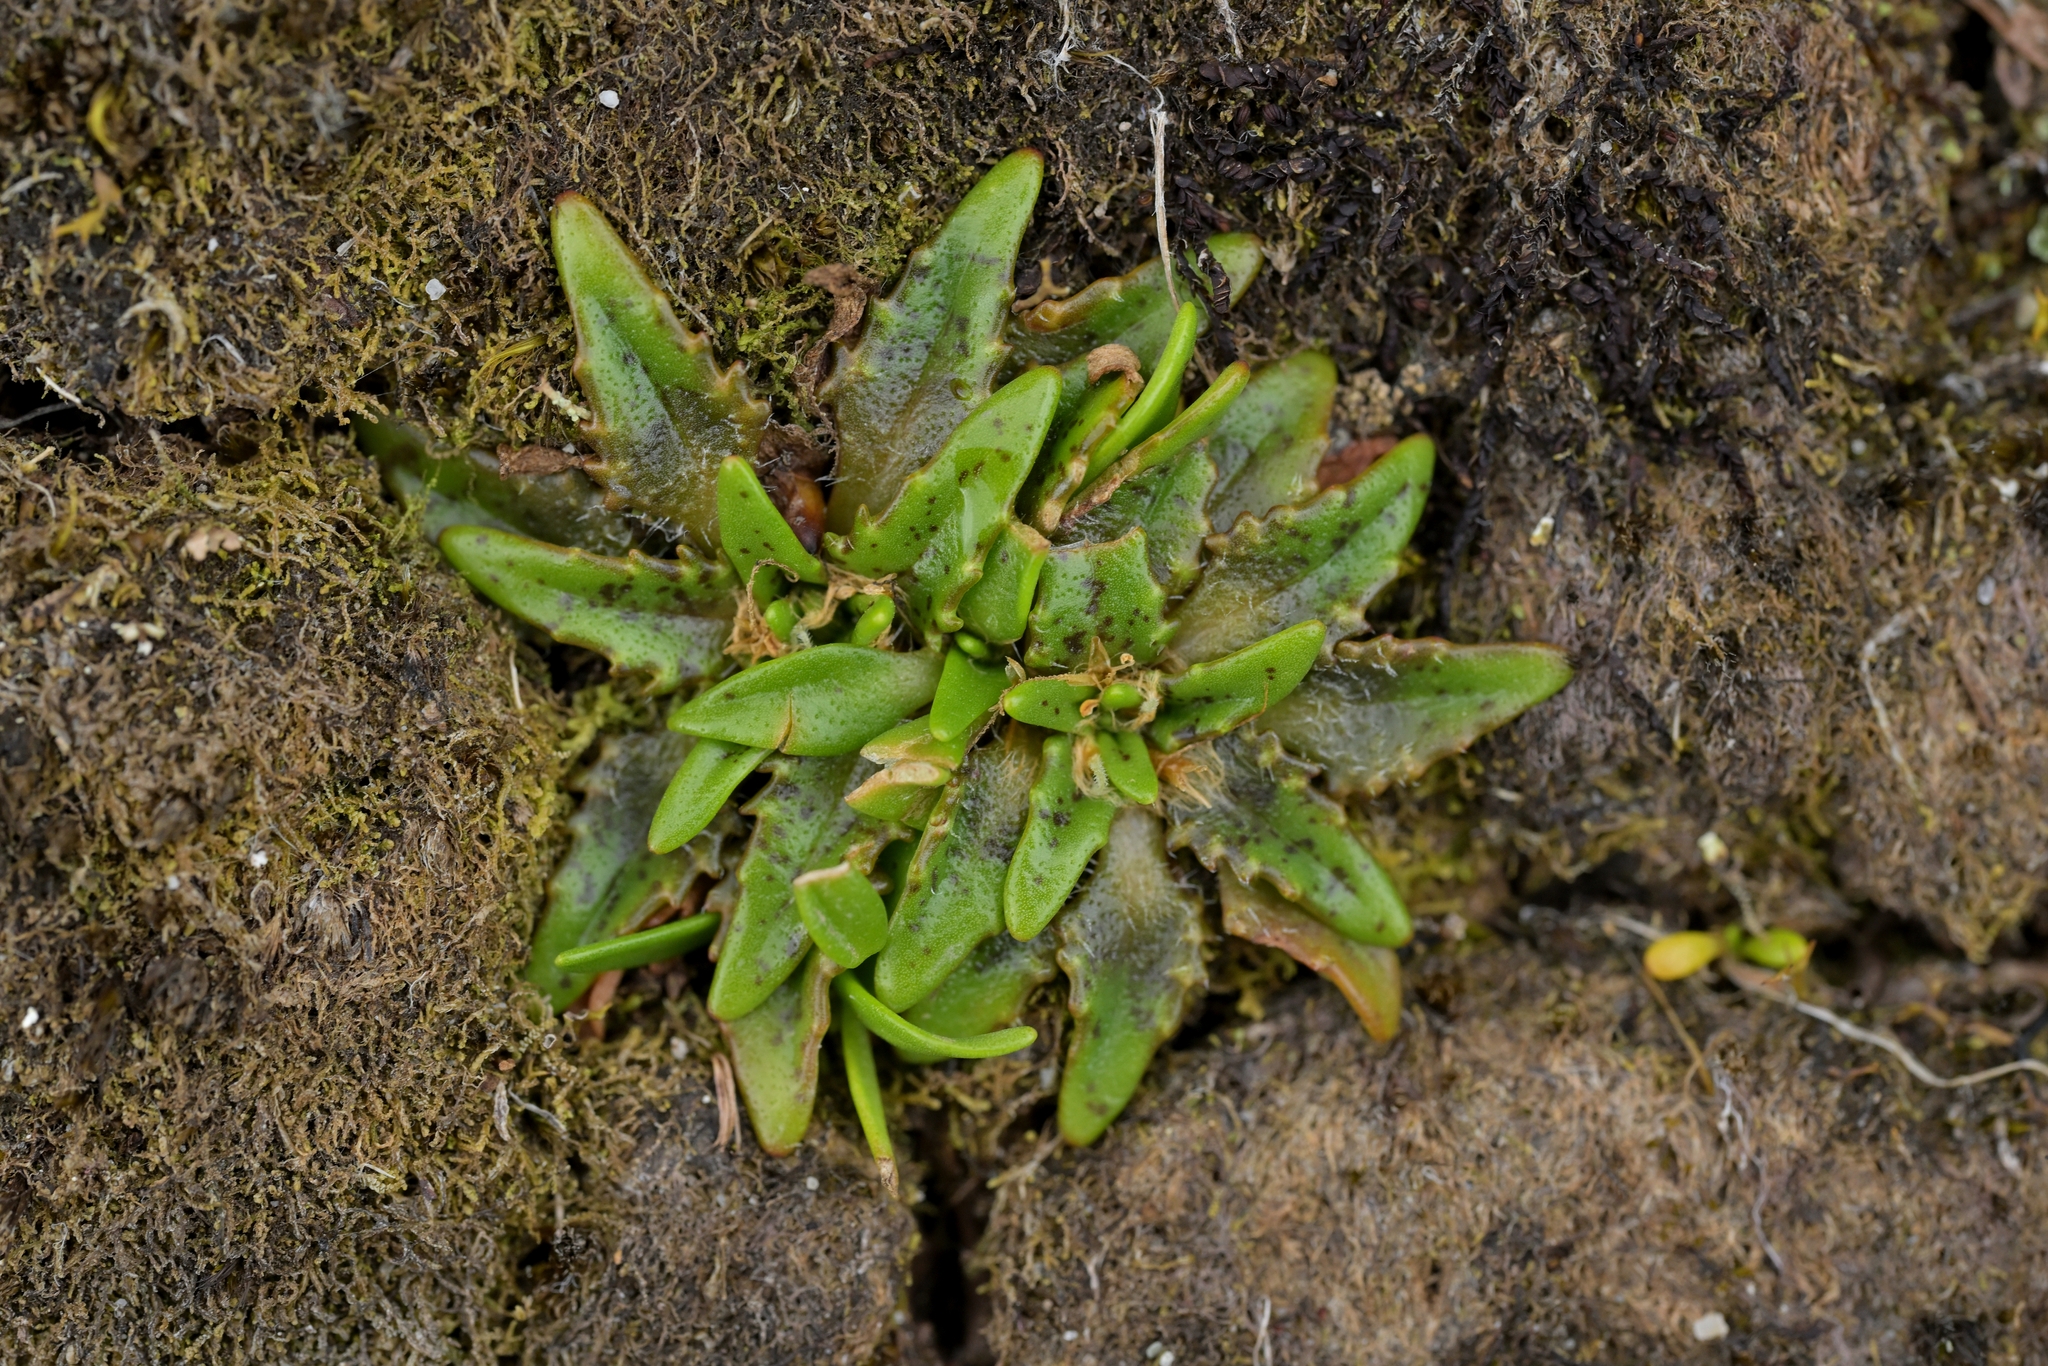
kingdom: Plantae
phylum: Tracheophyta
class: Magnoliopsida
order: Lamiales
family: Plantaginaceae
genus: Plantago
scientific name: Plantago triandra
